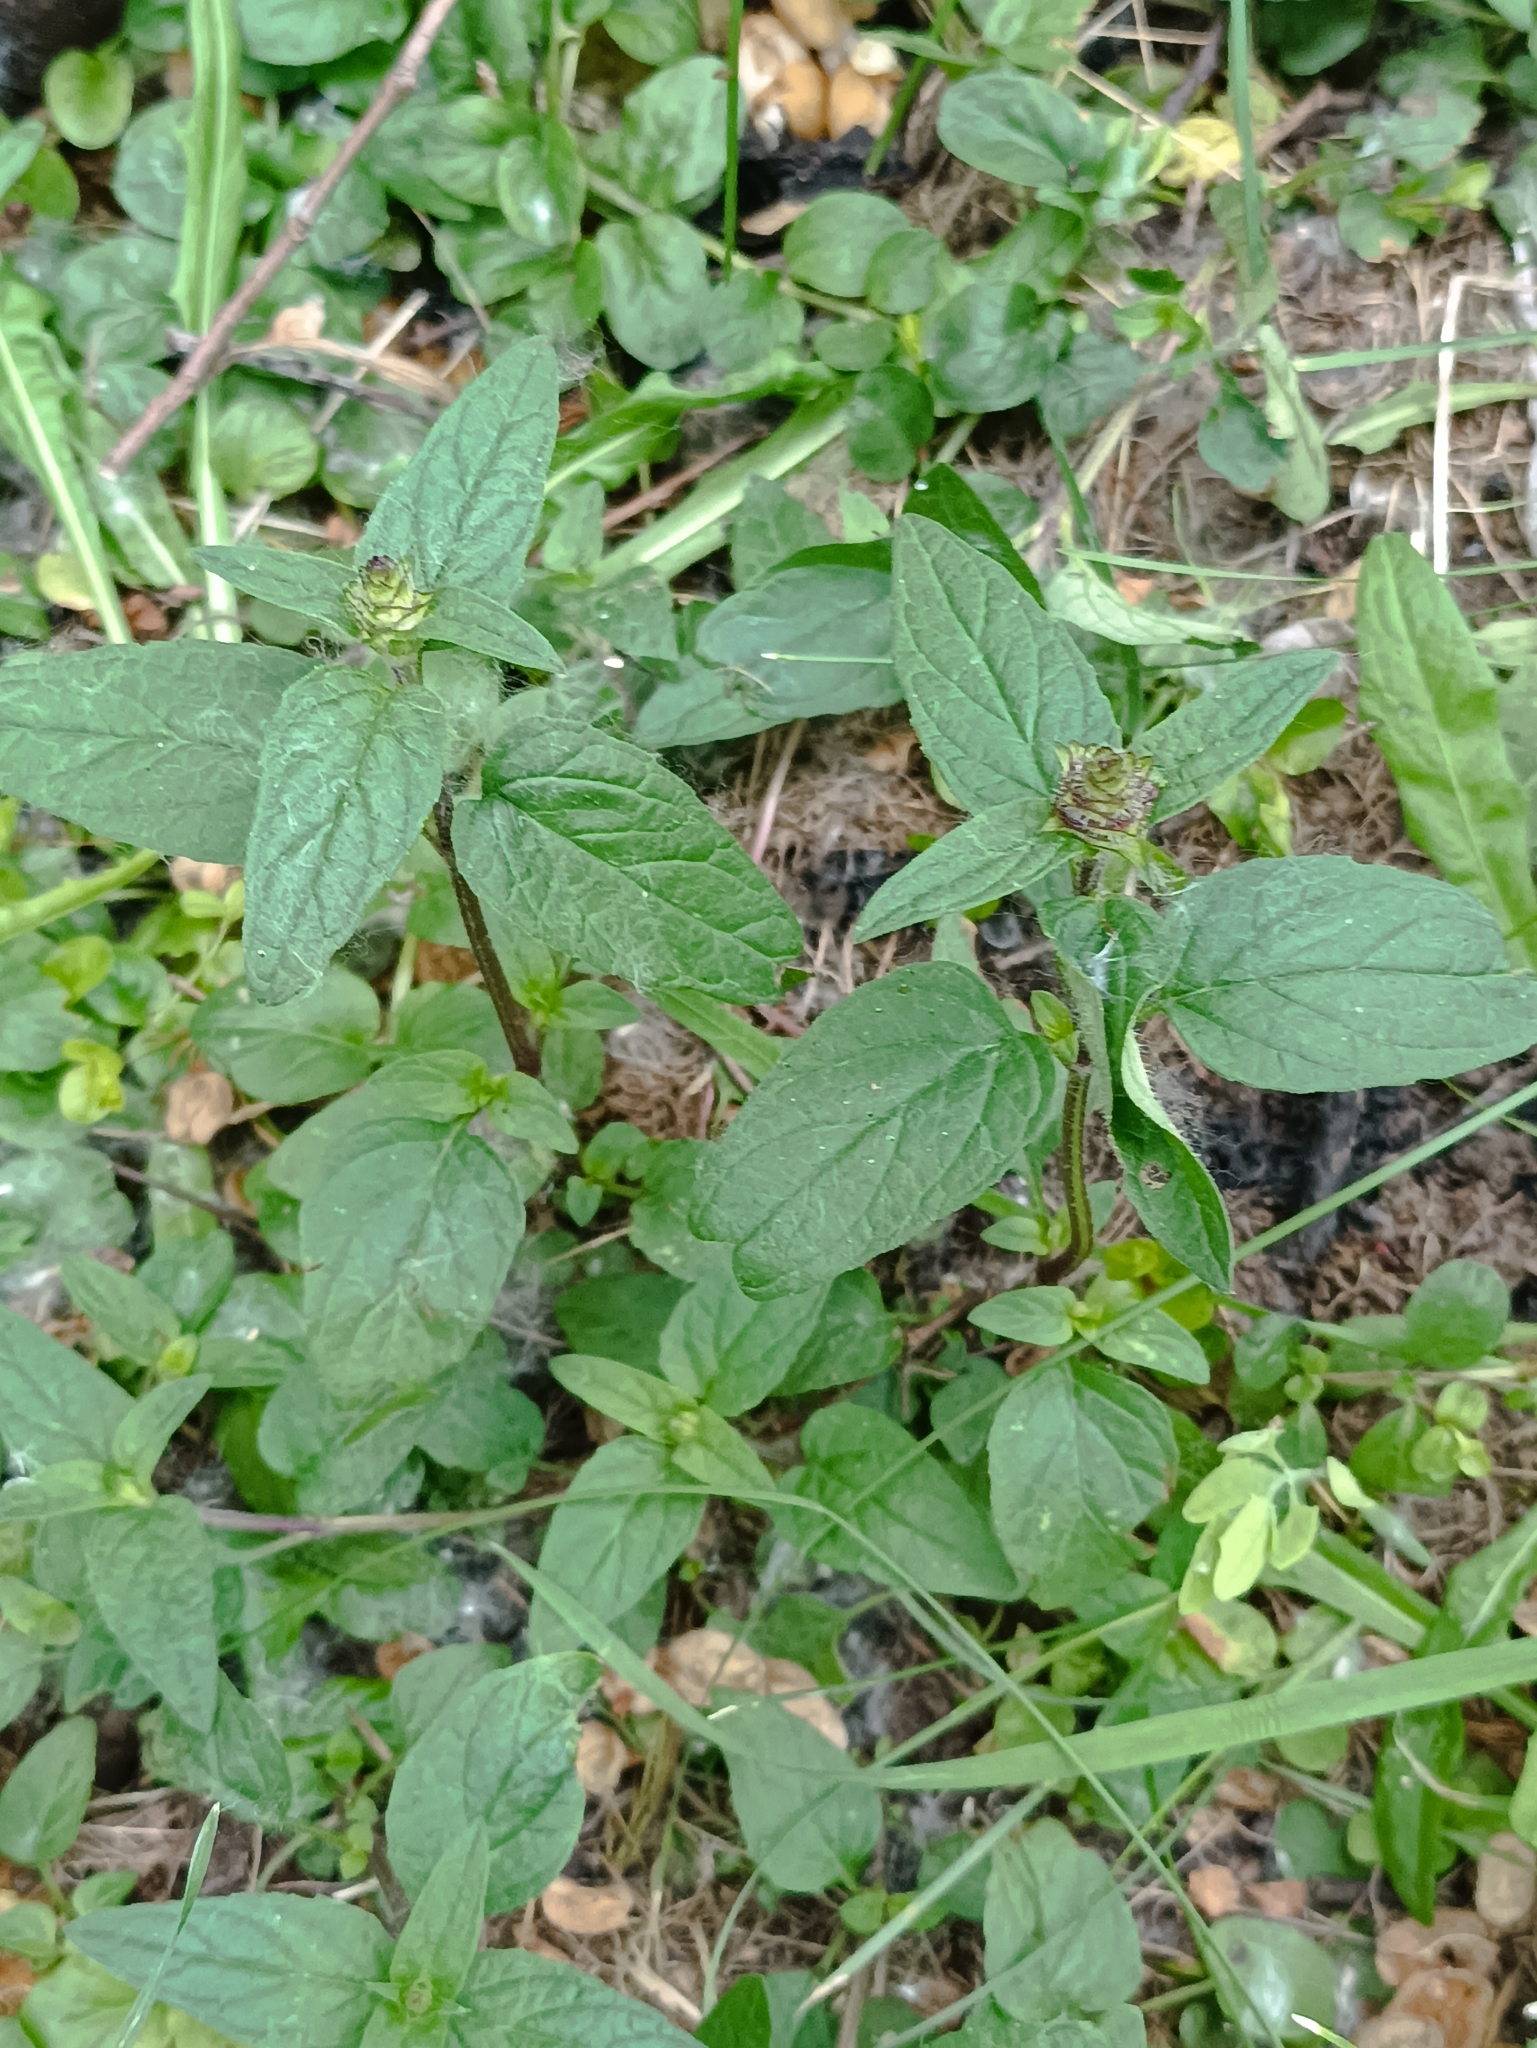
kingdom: Plantae
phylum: Tracheophyta
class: Magnoliopsida
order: Lamiales
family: Lamiaceae
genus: Prunella
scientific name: Prunella vulgaris
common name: Heal-all
